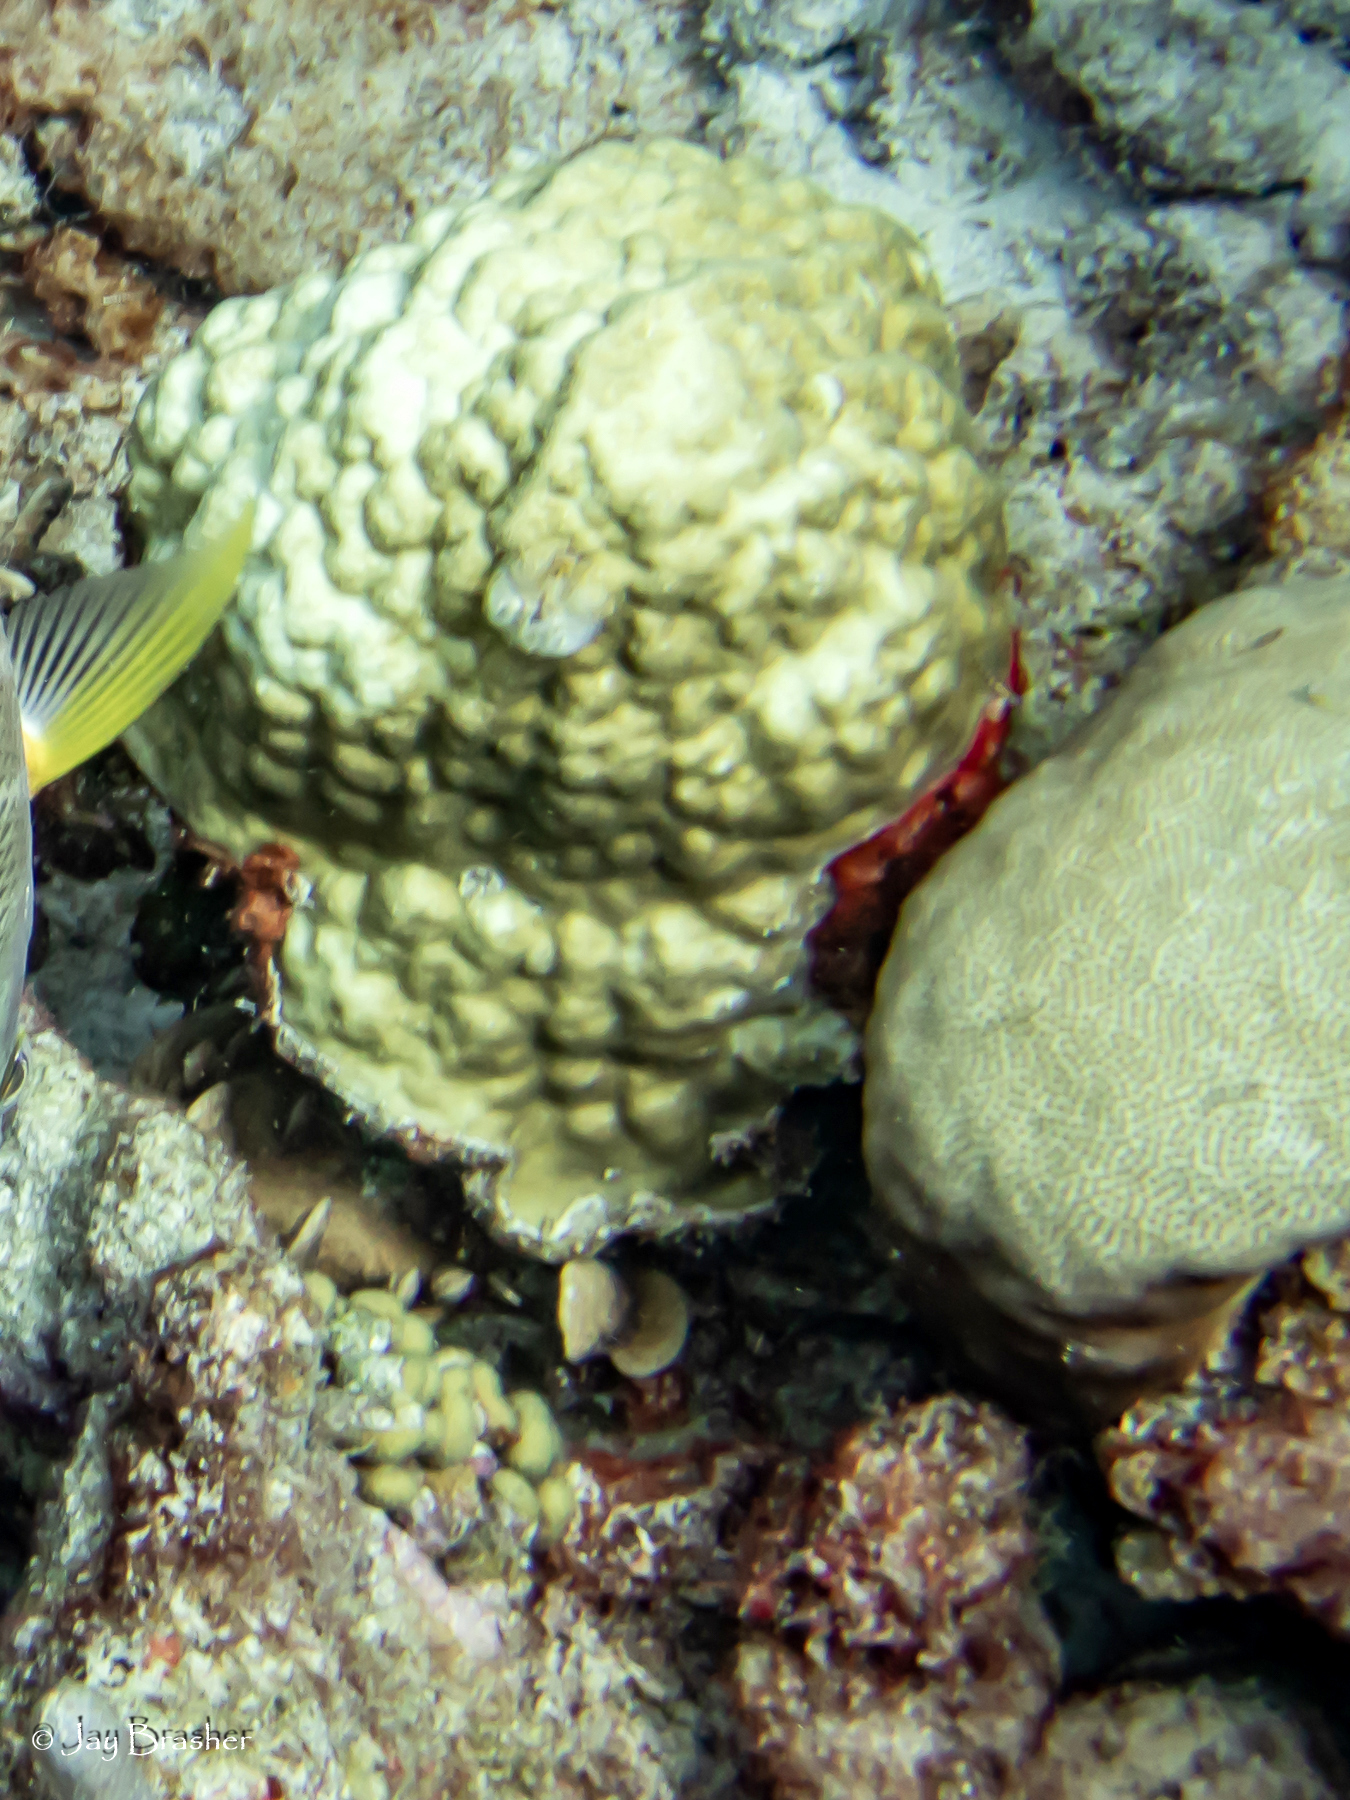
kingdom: Animalia
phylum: Cnidaria
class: Anthozoa
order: Scleractinia
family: Rhizangiidae
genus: Siderastrea
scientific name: Siderastrea siderea
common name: Massive starlet coral
